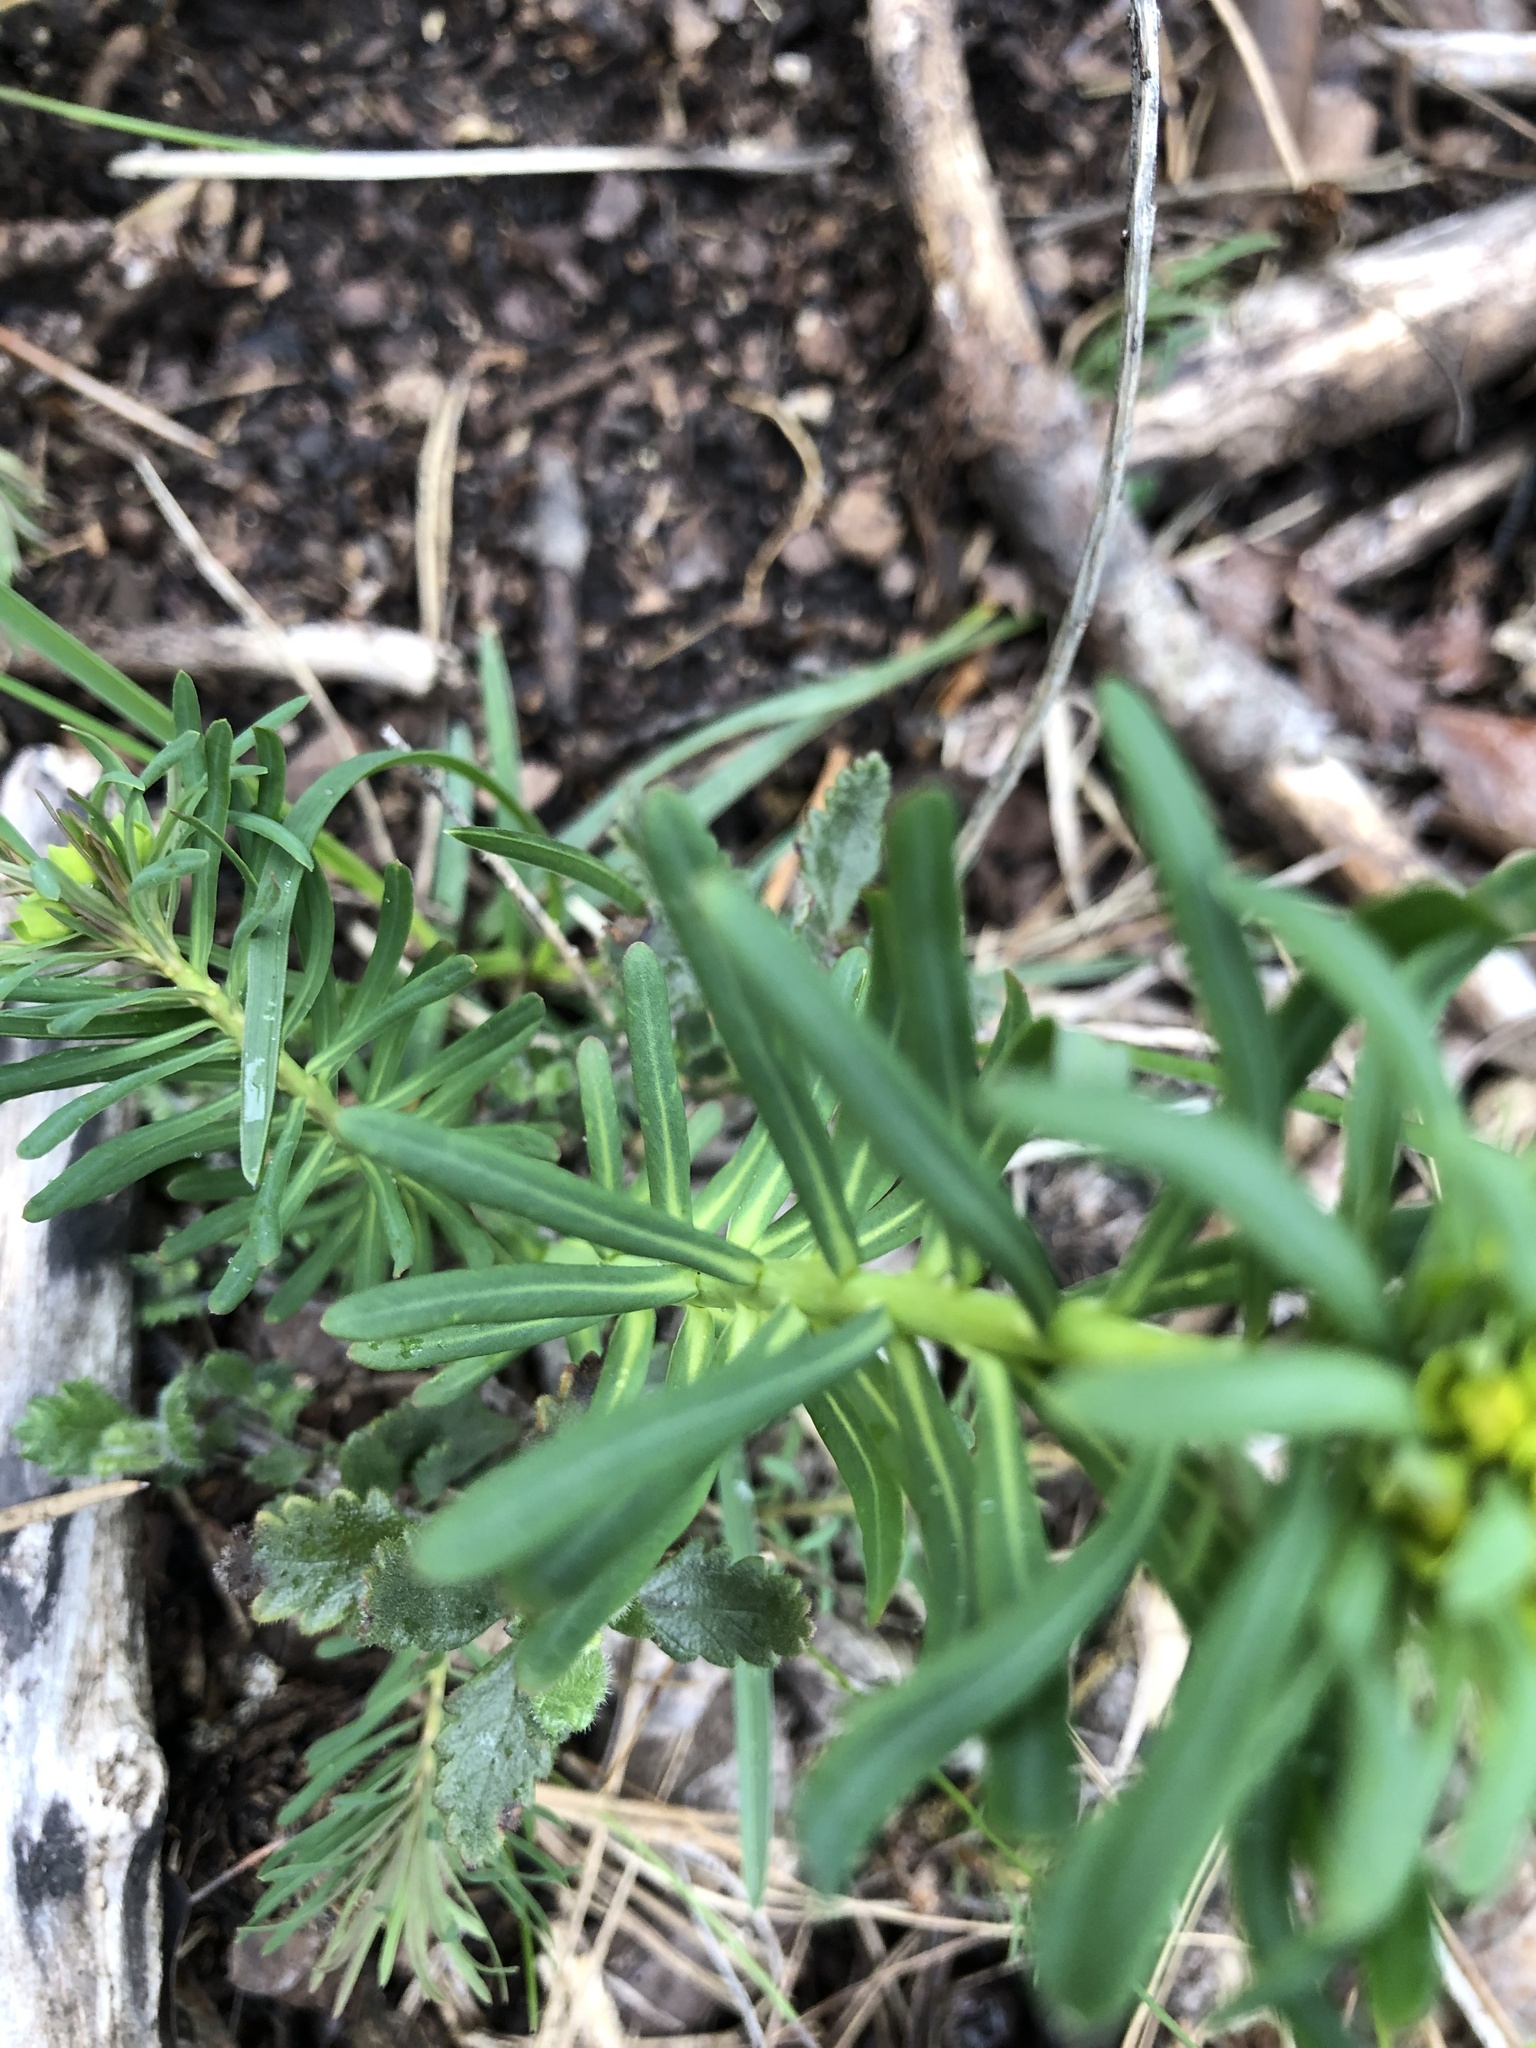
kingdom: Plantae
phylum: Tracheophyta
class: Magnoliopsida
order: Malpighiales
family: Euphorbiaceae
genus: Euphorbia
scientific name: Euphorbia cyparissias
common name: Cypress spurge
